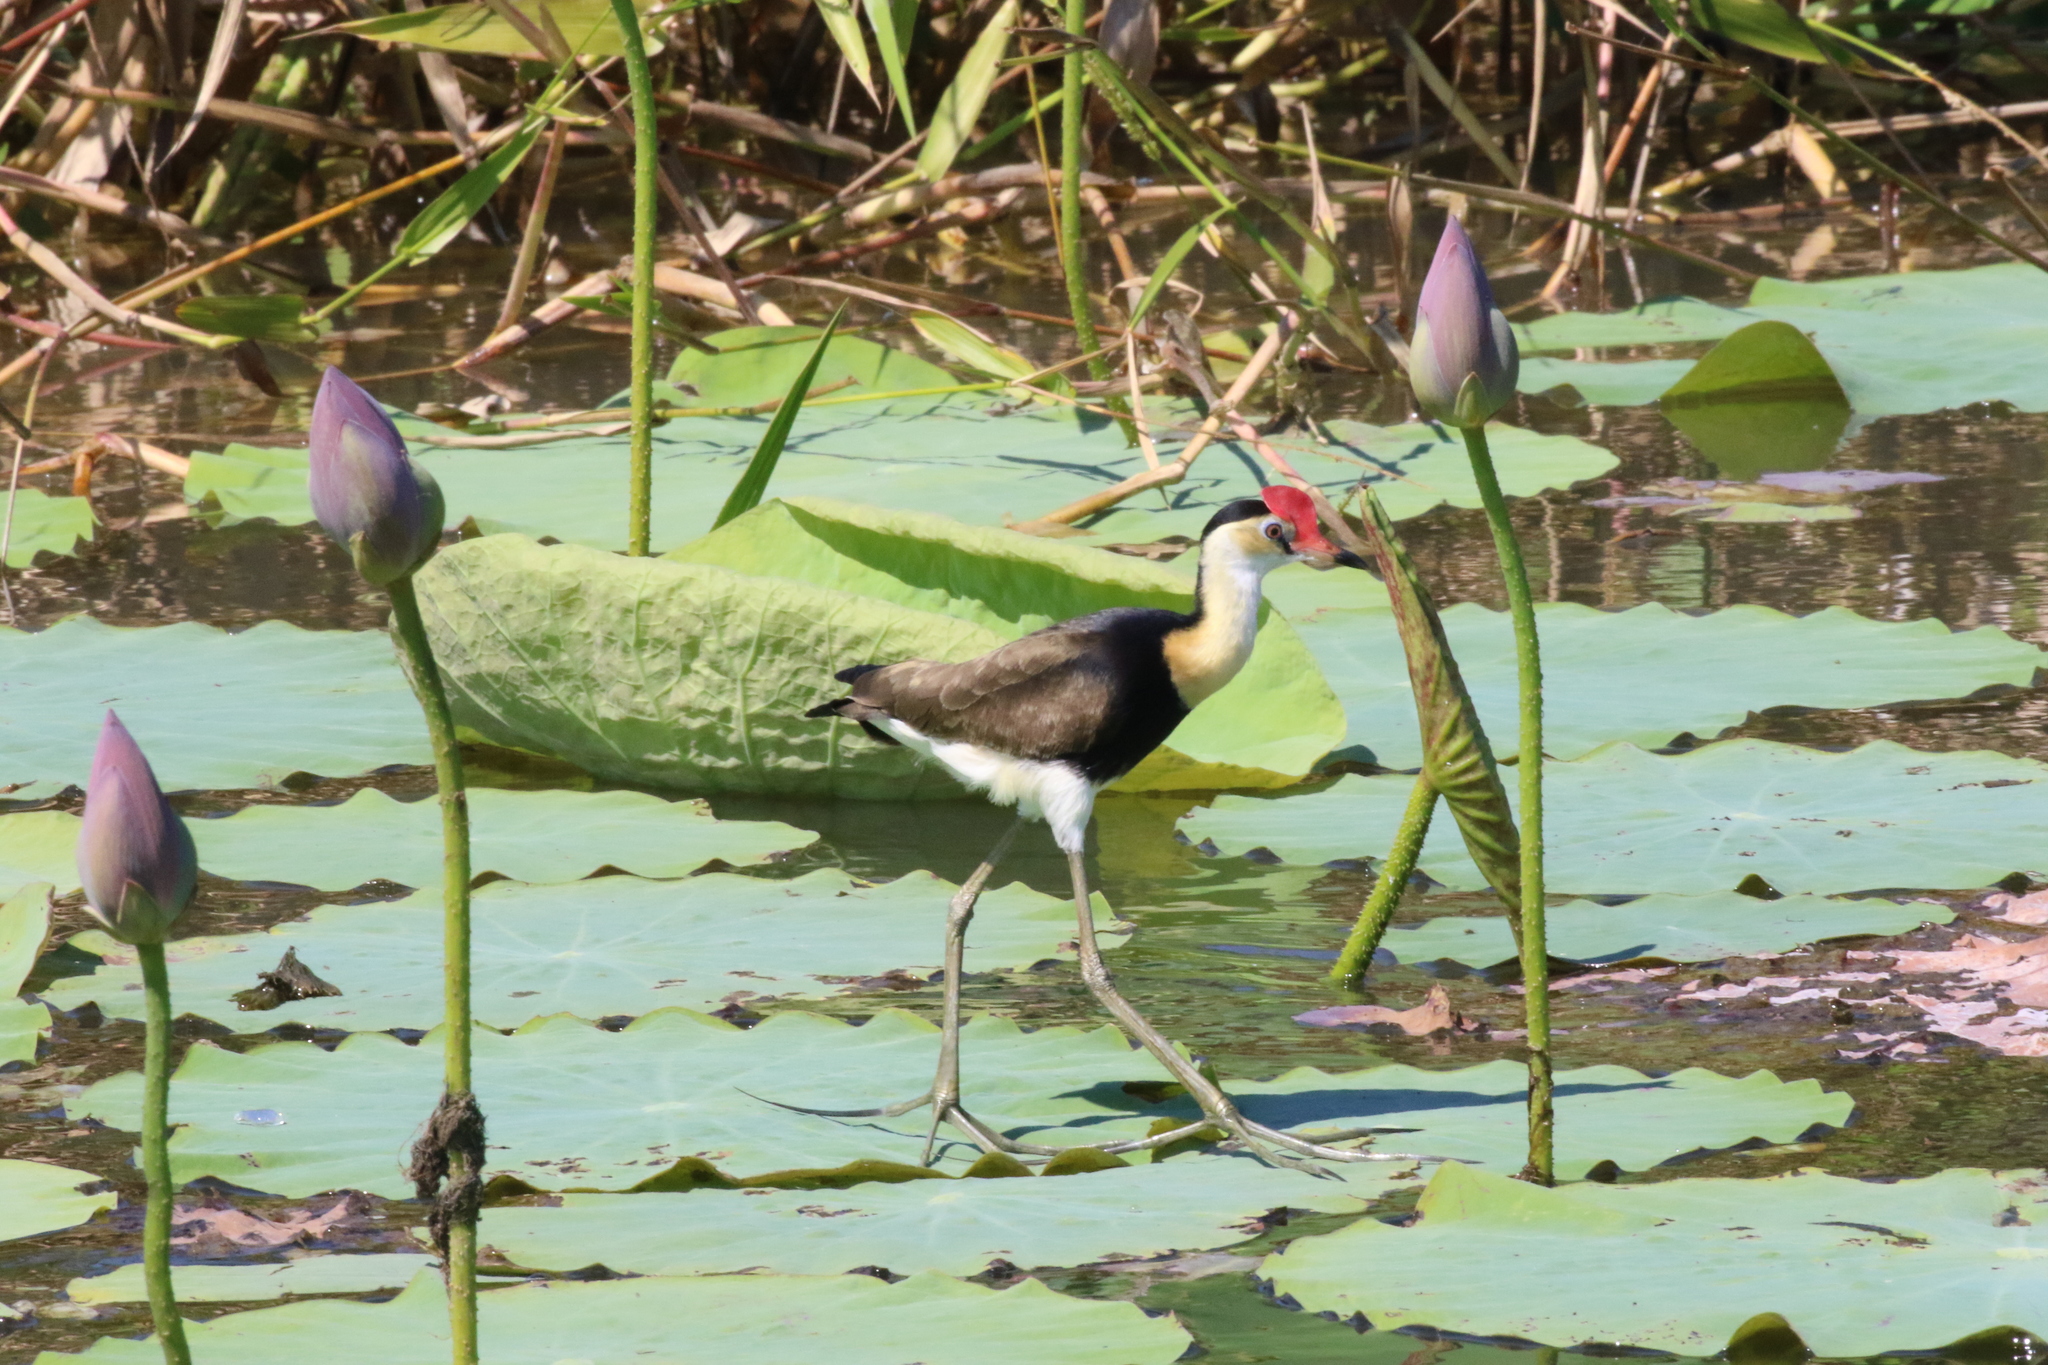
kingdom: Animalia
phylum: Chordata
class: Aves
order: Charadriiformes
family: Jacanidae
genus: Irediparra
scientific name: Irediparra gallinacea
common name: Comb-crested jacana
